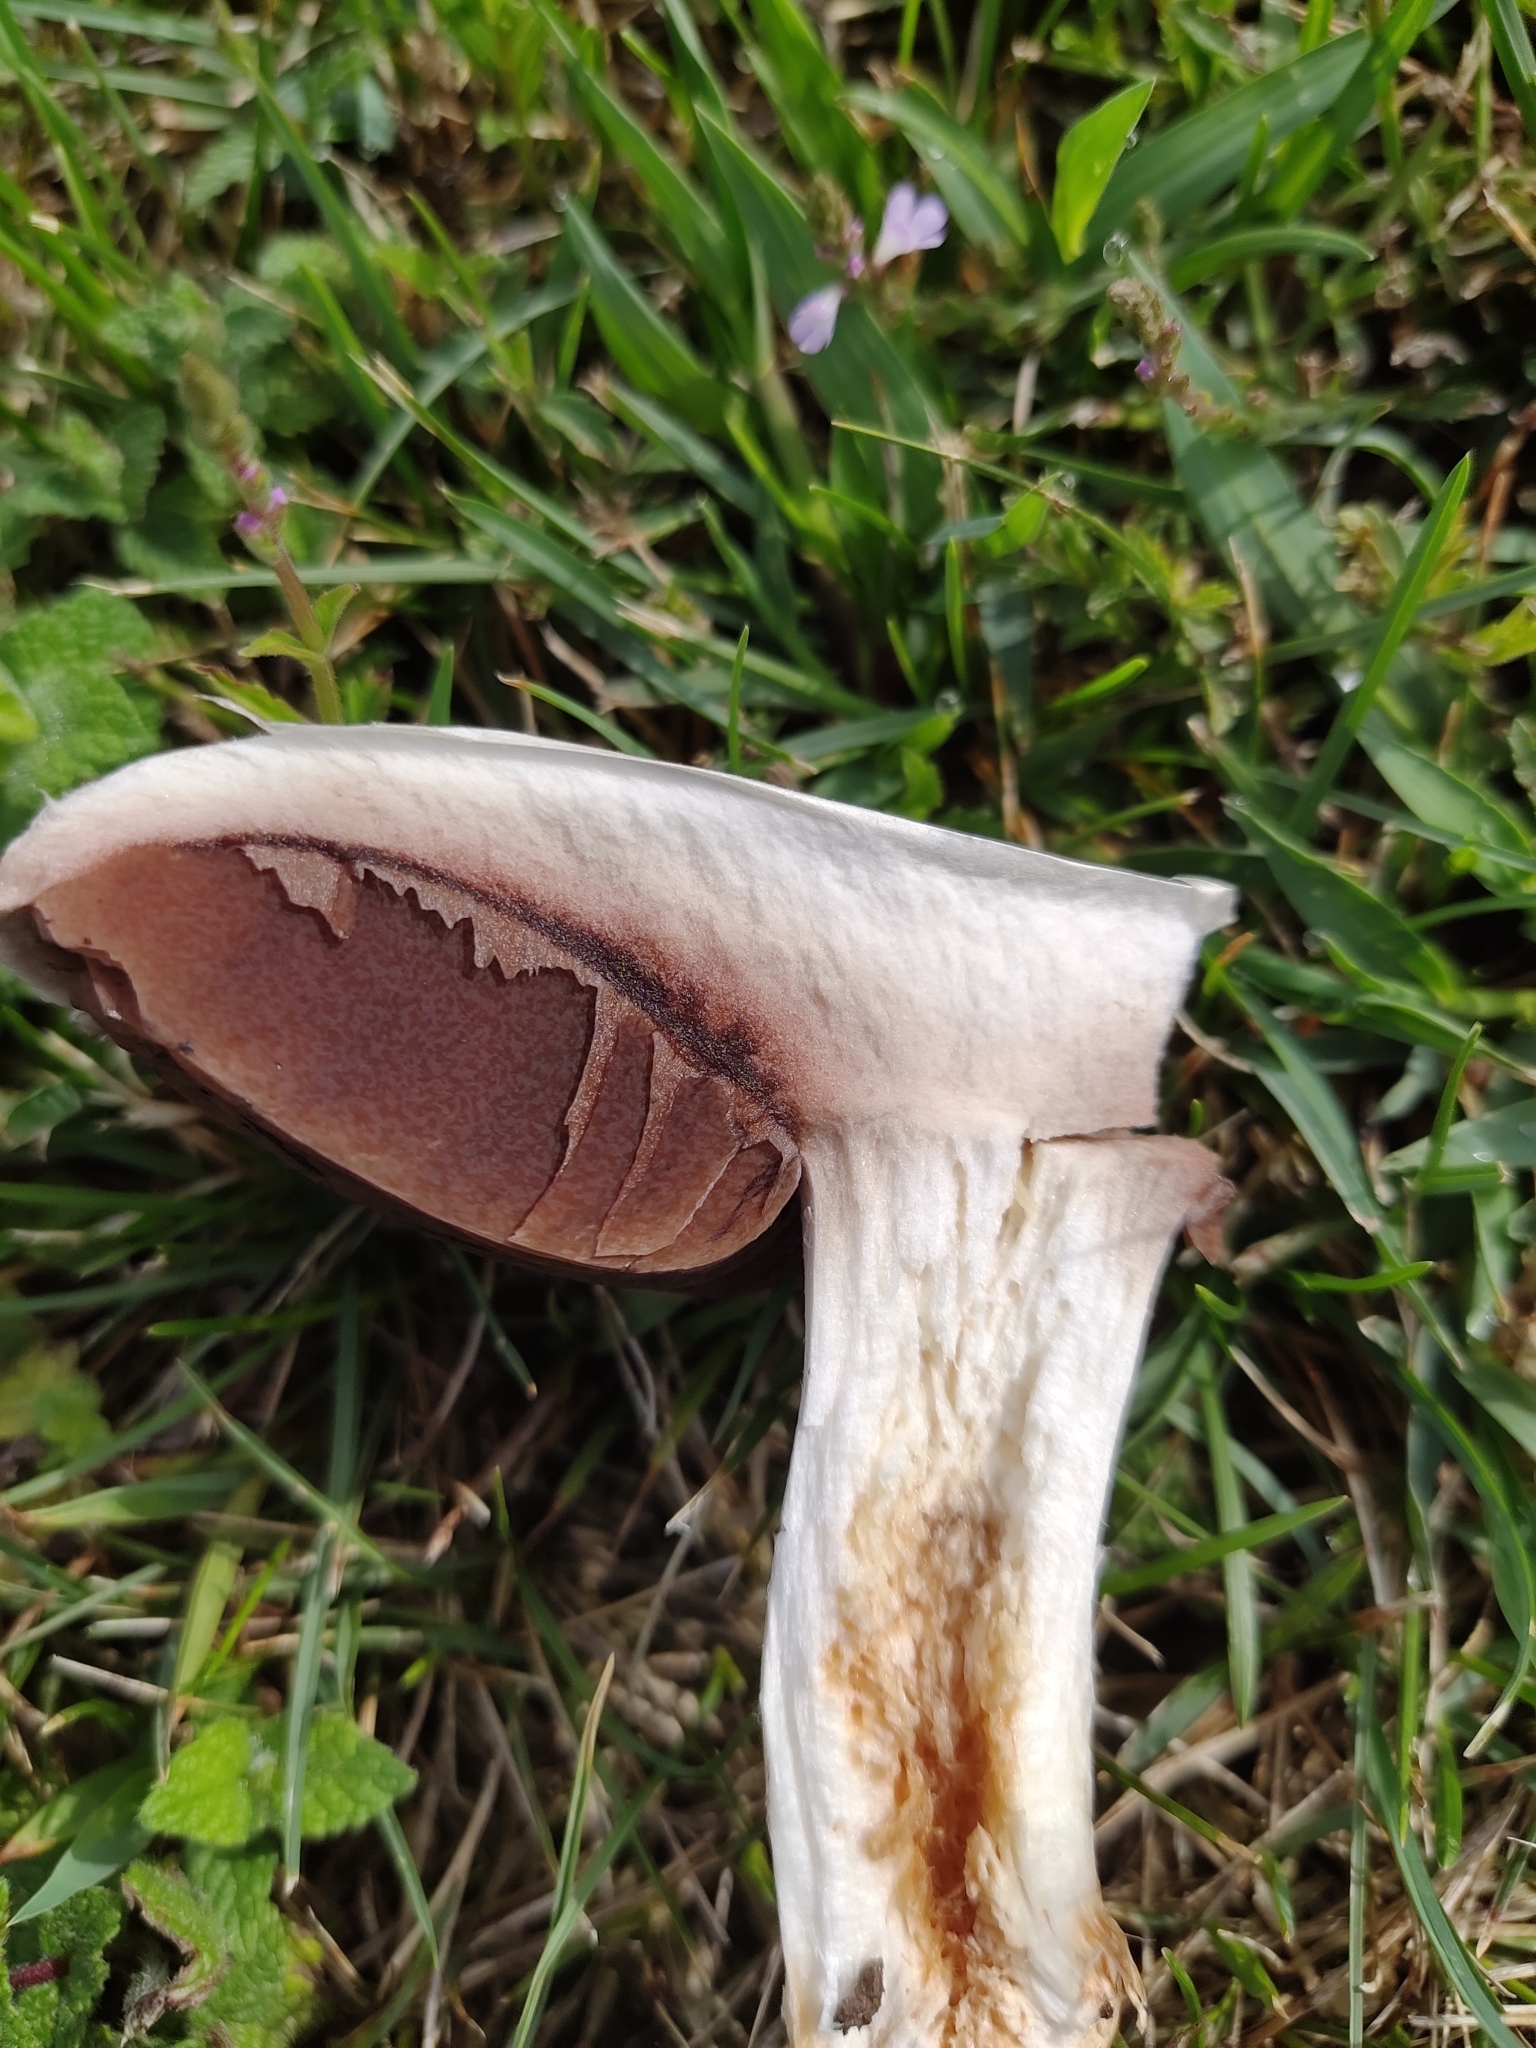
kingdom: Fungi
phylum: Basidiomycota
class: Agaricomycetes
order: Agaricales
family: Agaricaceae
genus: Agaricus
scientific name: Agaricus campestris
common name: Field mushroom
